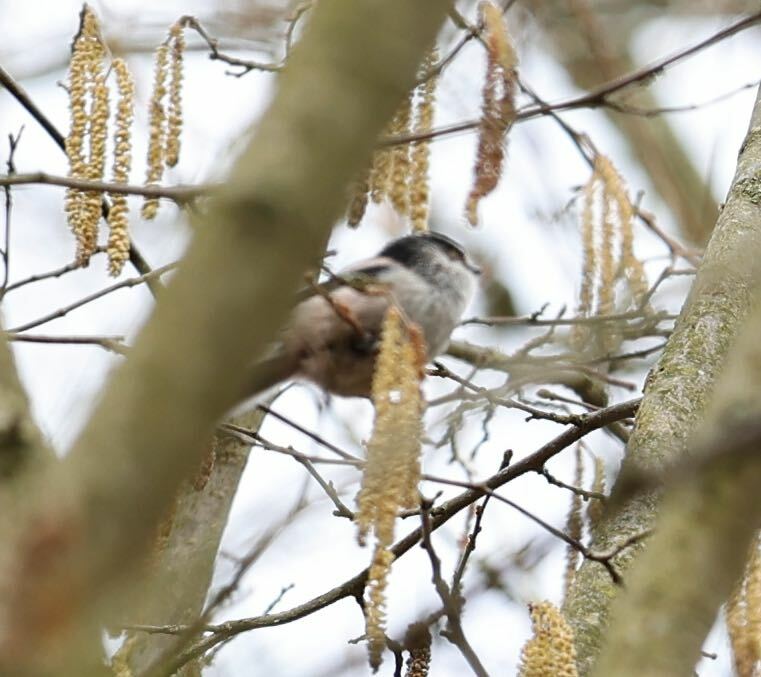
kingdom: Animalia
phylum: Chordata
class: Aves
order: Passeriformes
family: Aegithalidae
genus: Aegithalos
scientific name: Aegithalos caudatus
